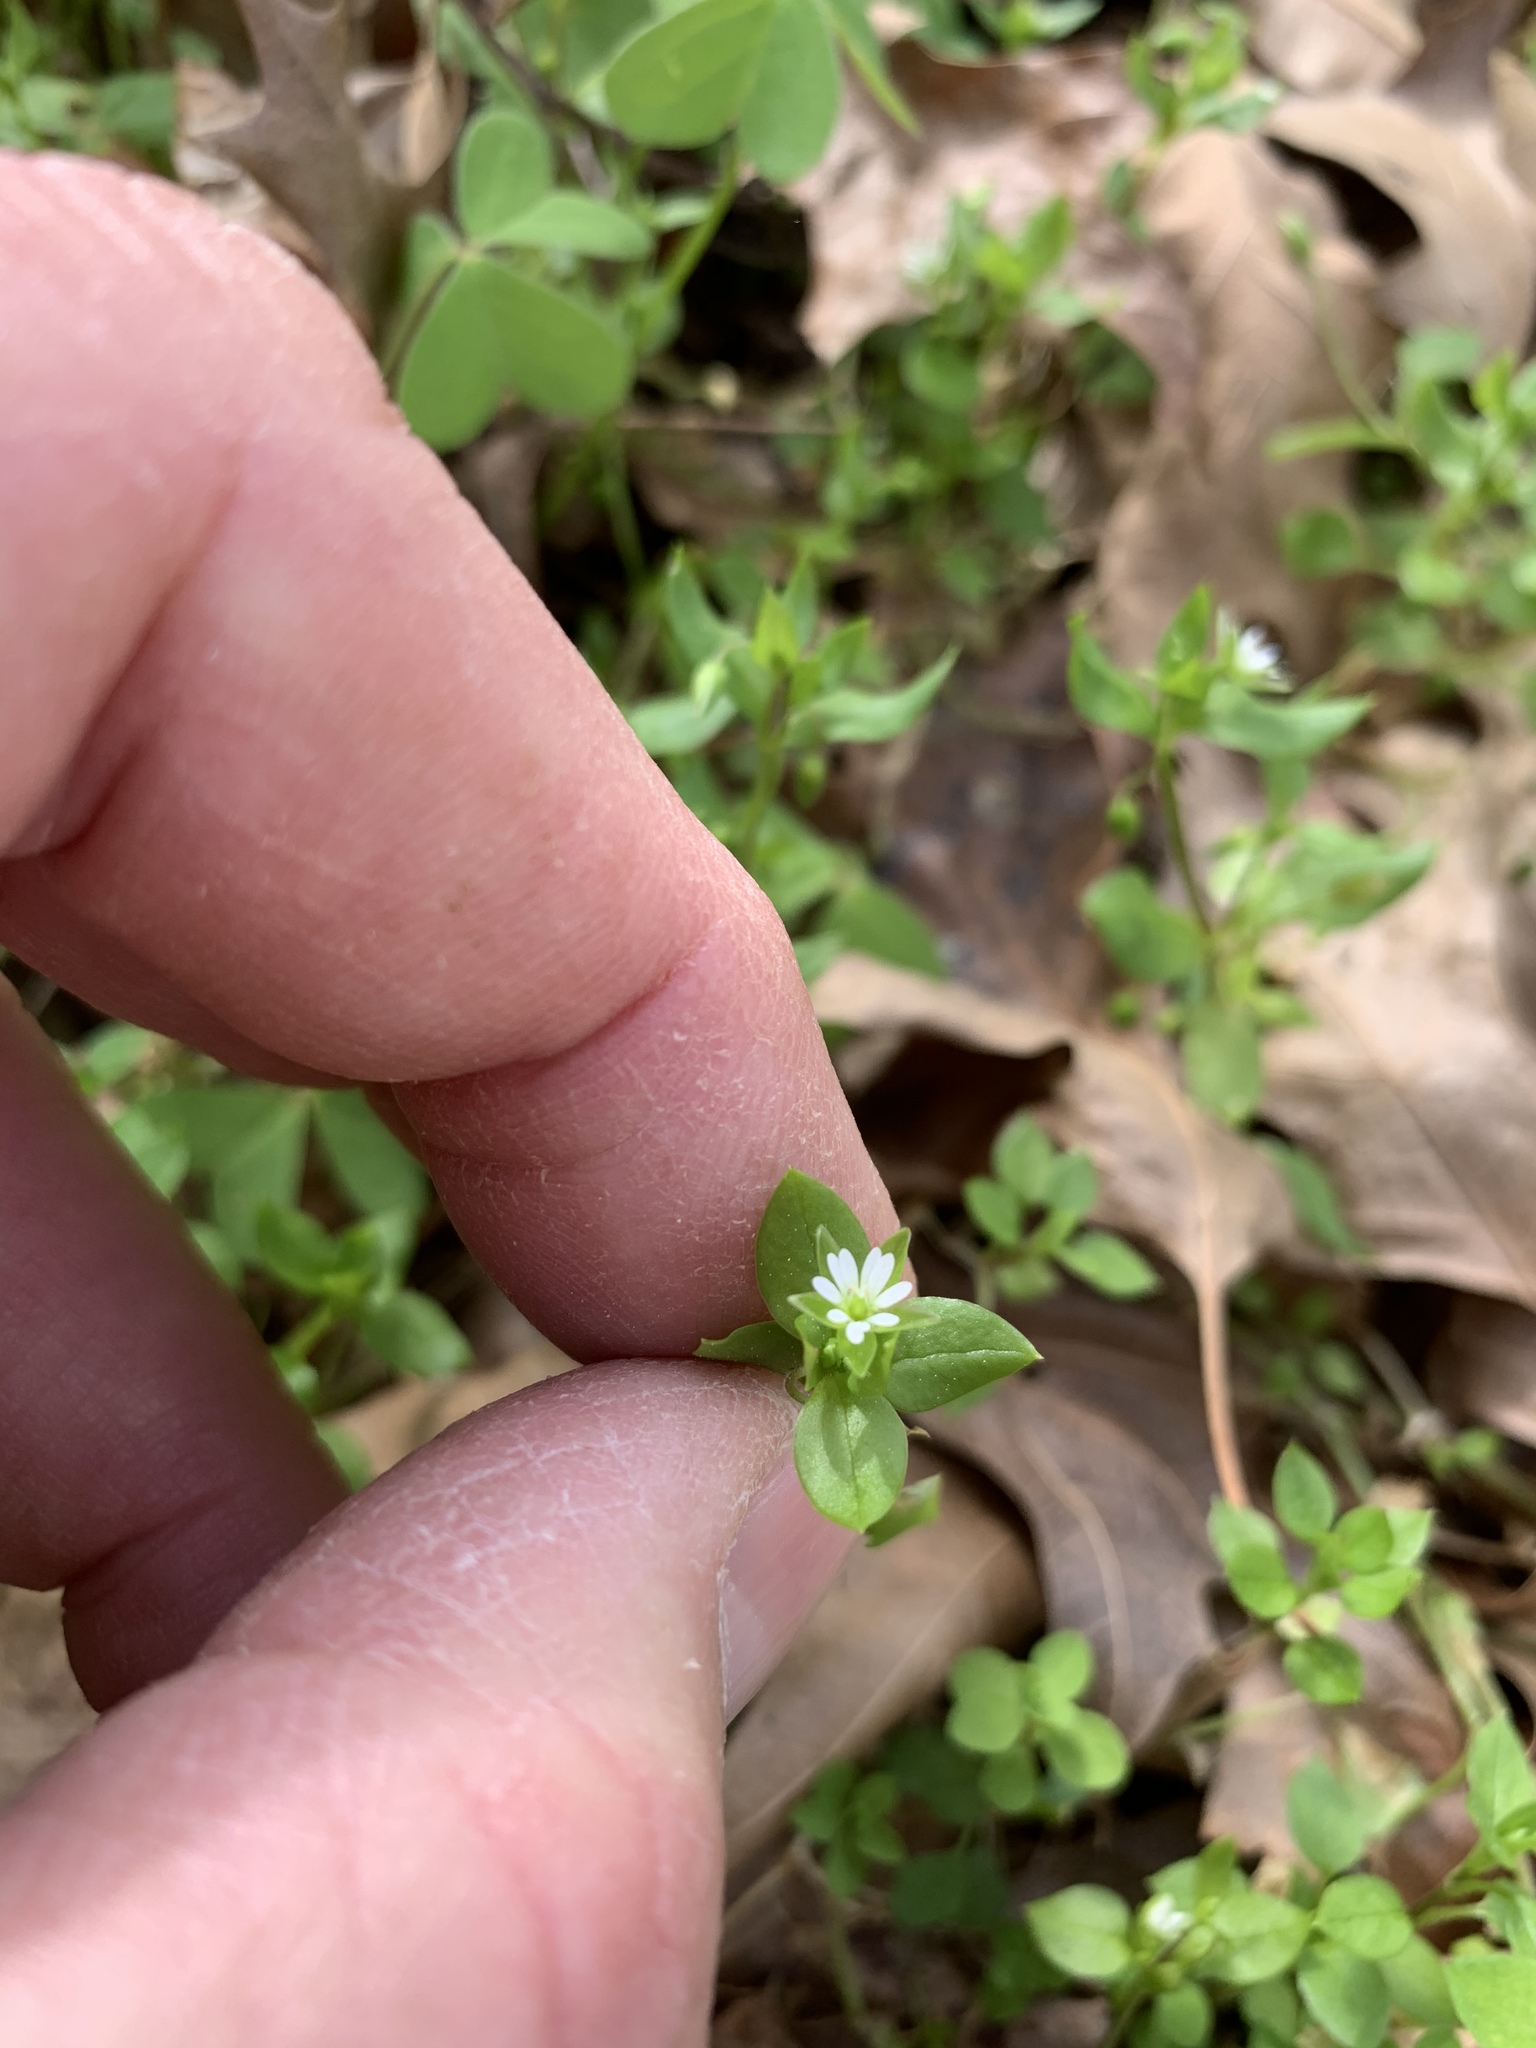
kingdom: Plantae
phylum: Tracheophyta
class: Magnoliopsida
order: Caryophyllales
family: Caryophyllaceae
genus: Stellaria
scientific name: Stellaria media
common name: Common chickweed
